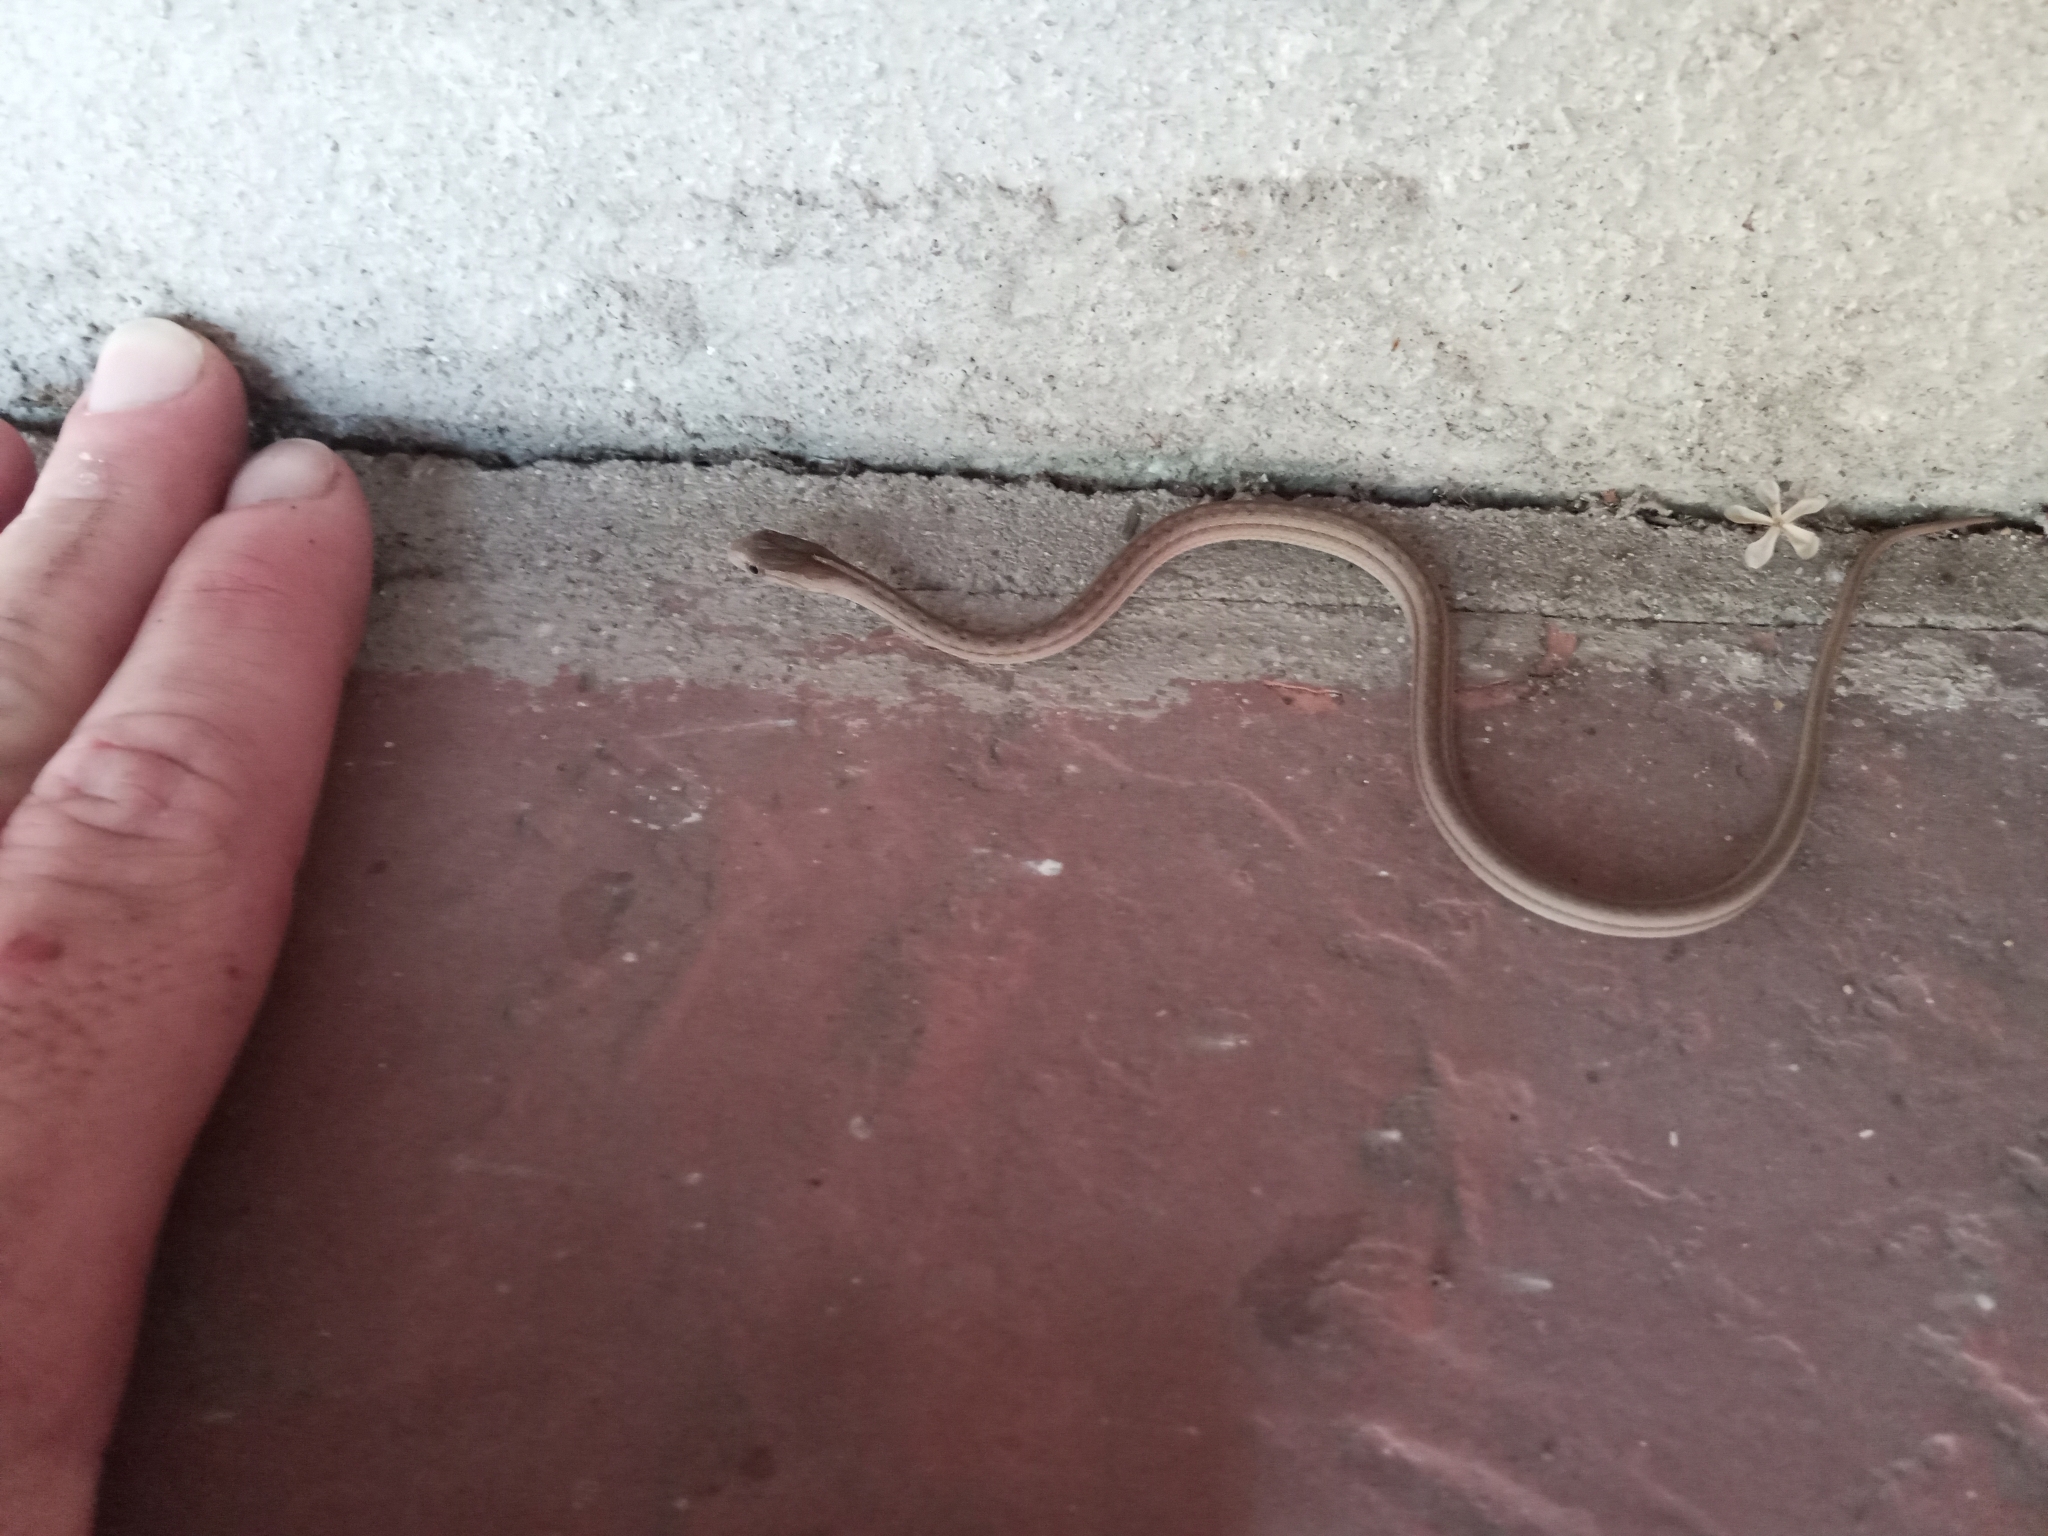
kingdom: Animalia
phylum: Chordata
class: Squamata
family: Colubridae
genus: Dryophylax
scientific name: Dryophylax
